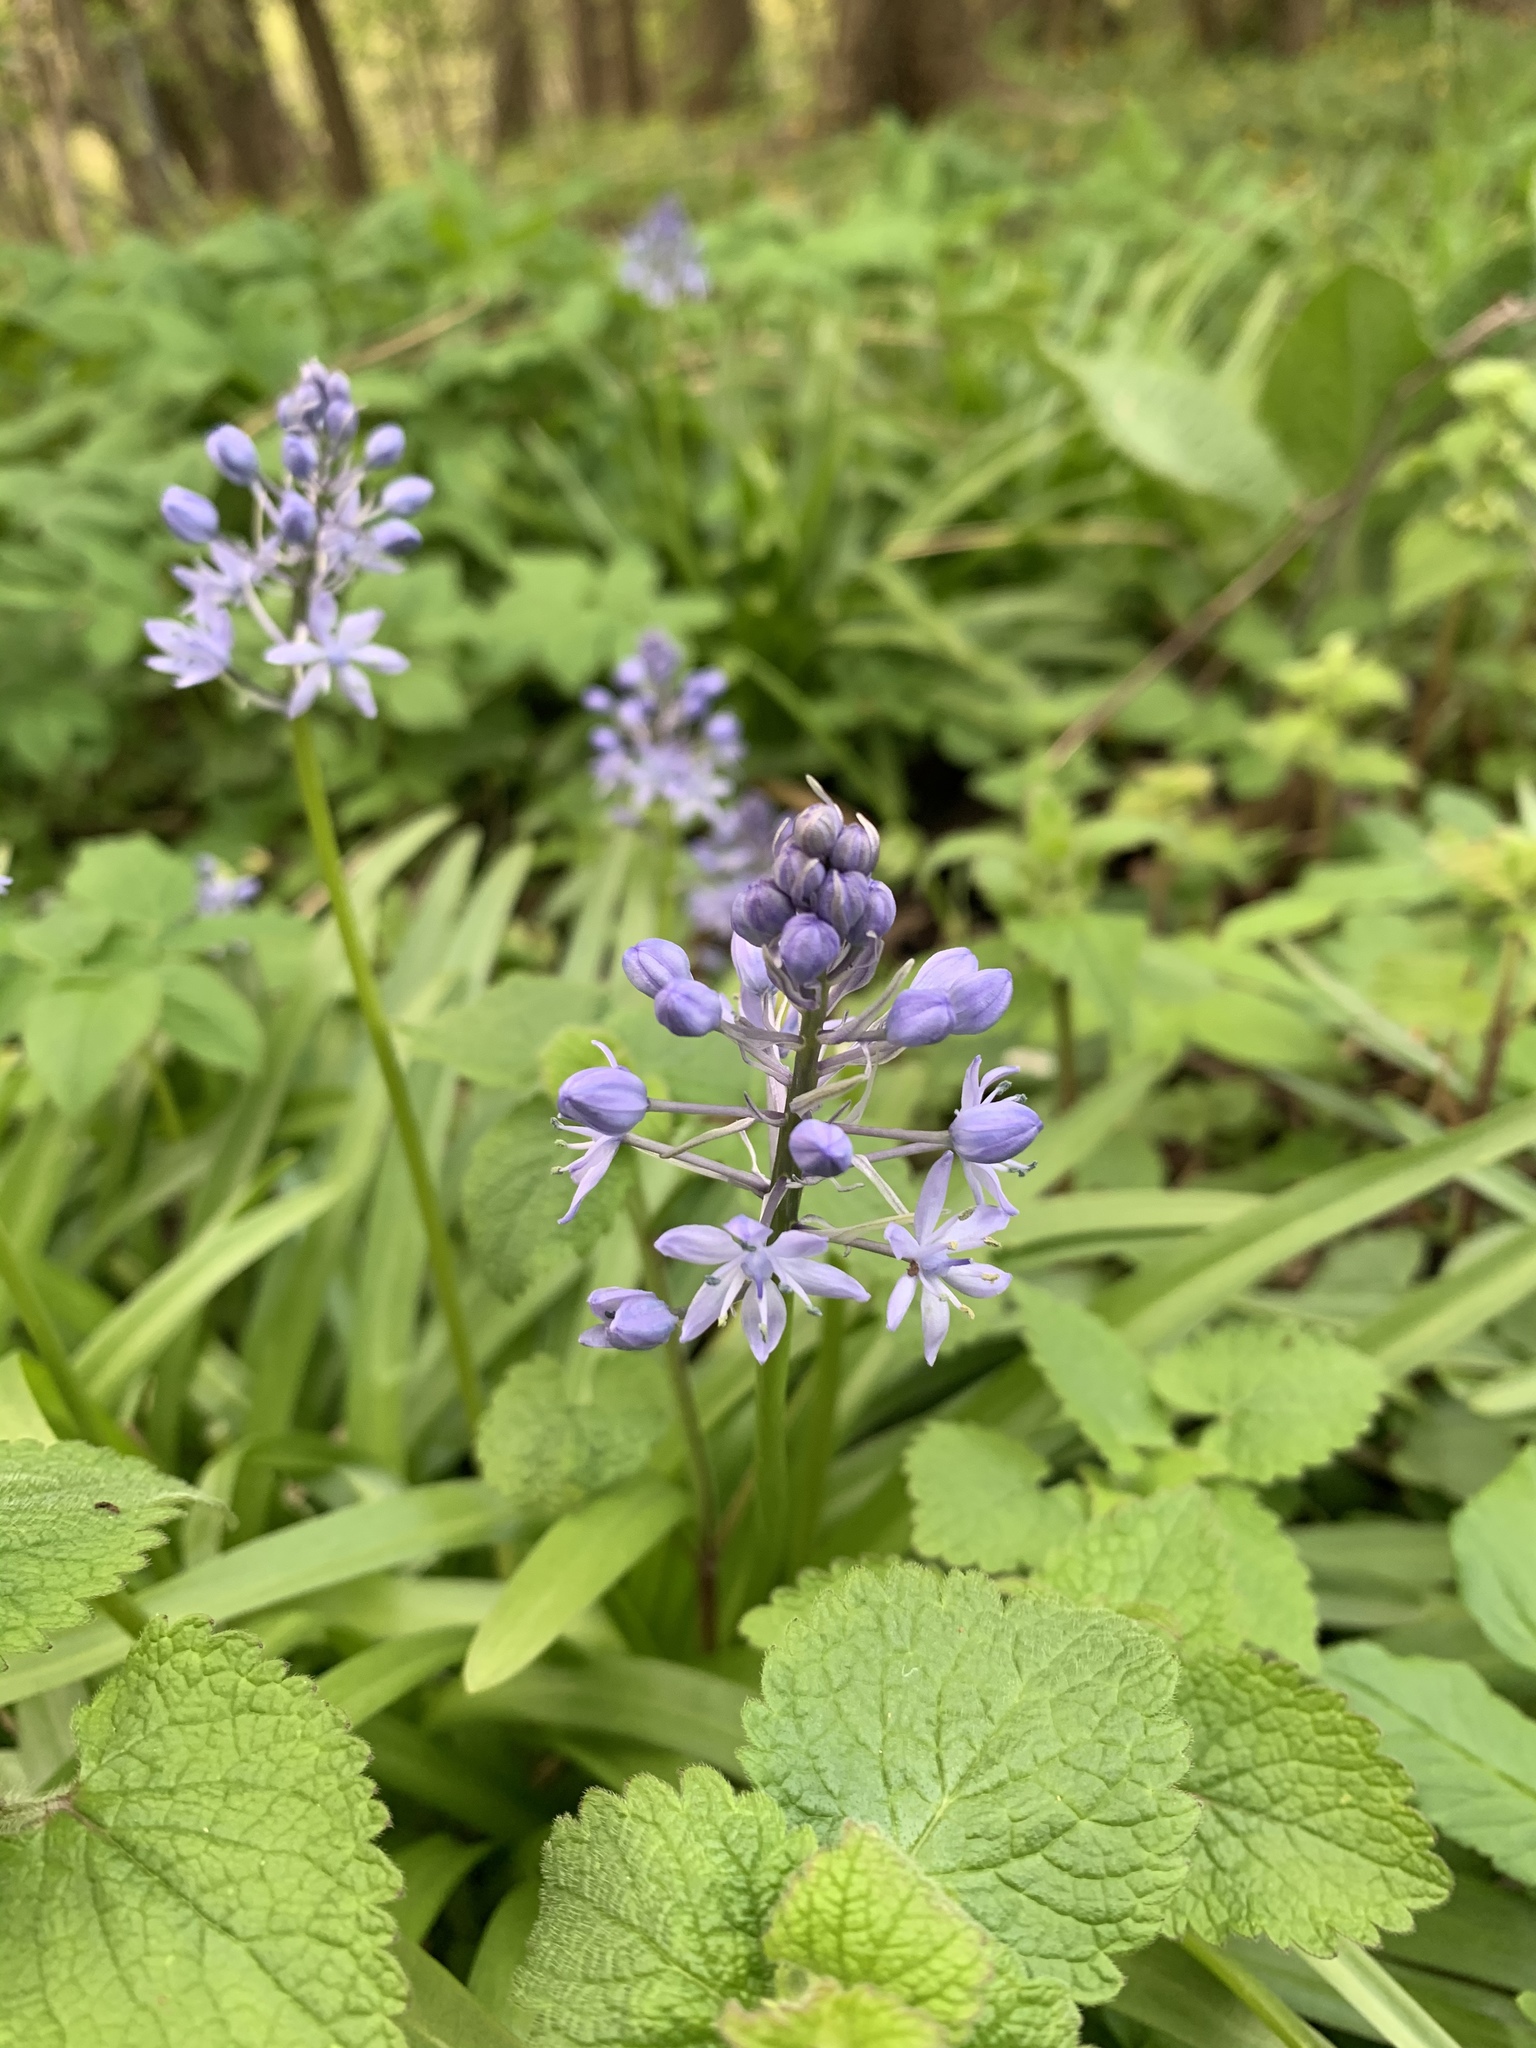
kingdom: Plantae
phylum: Tracheophyta
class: Liliopsida
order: Asparagales
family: Asparagaceae
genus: Hyacinthoides
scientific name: Hyacinthoides italica
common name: Italian bluebell
